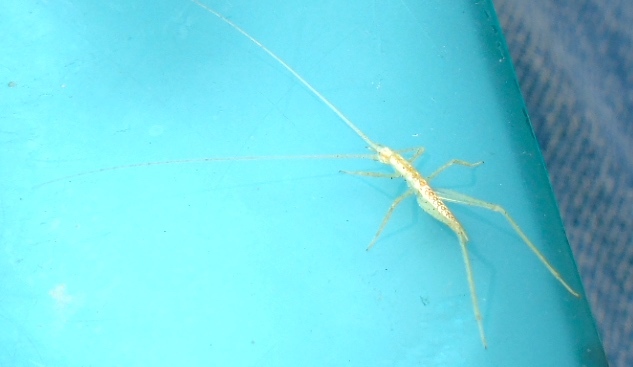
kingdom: Animalia
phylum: Arthropoda
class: Insecta
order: Orthoptera
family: Gryllidae
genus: Oecanthus
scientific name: Oecanthus leptogrammus
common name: Thin-lined tree cricket
